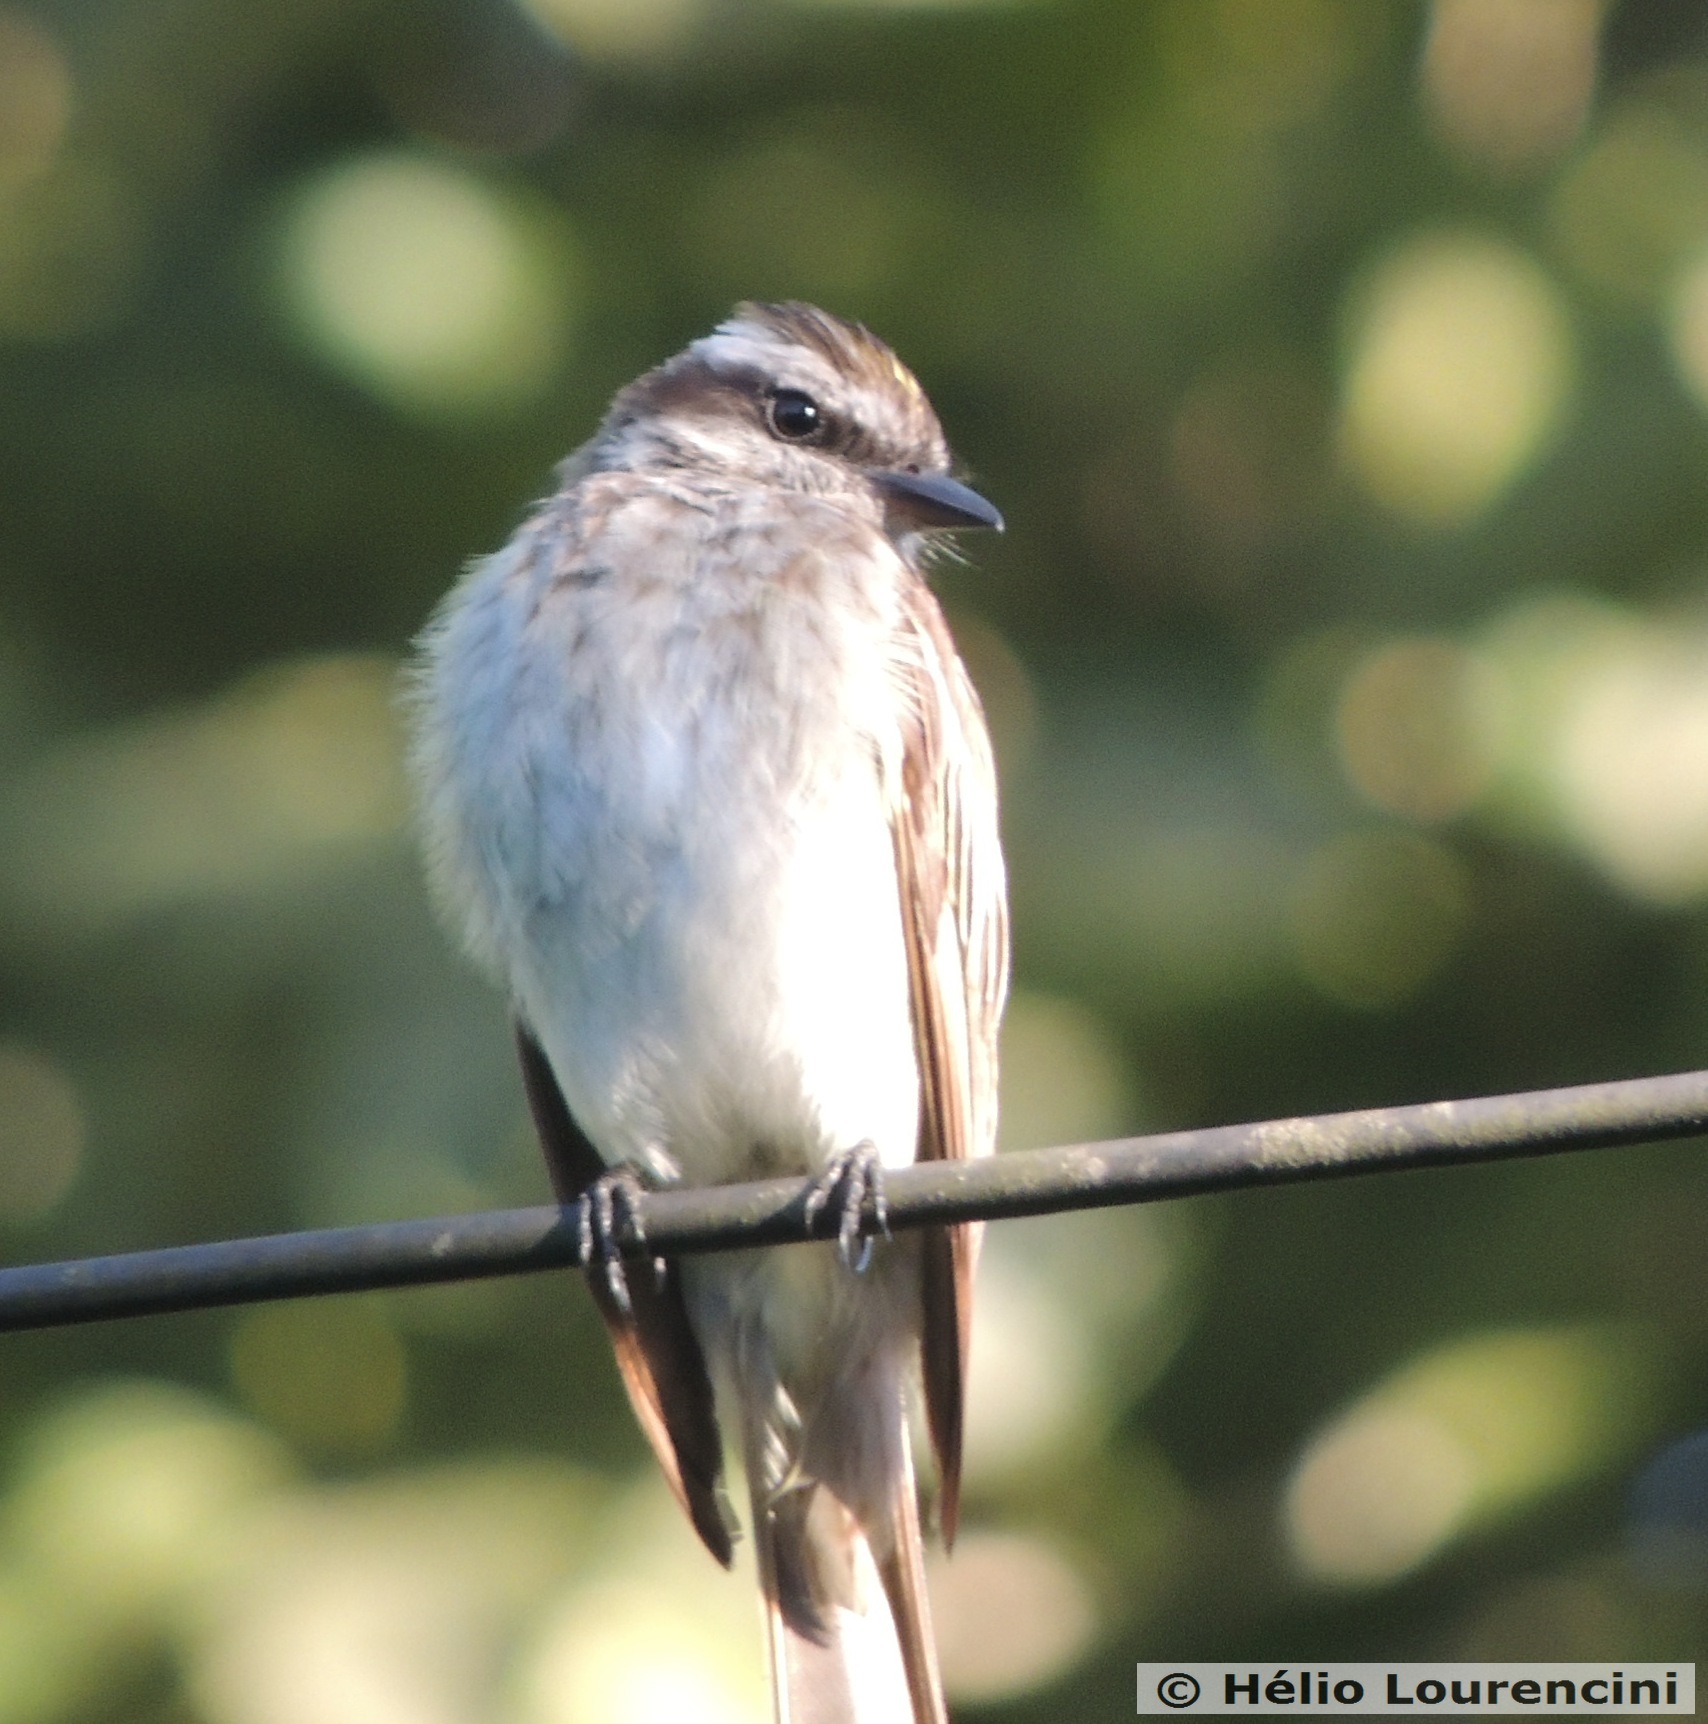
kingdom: Animalia
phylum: Chordata
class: Aves
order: Passeriformes
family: Tyrannidae
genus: Empidonomus
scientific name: Empidonomus varius
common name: Variegated flycatcher
